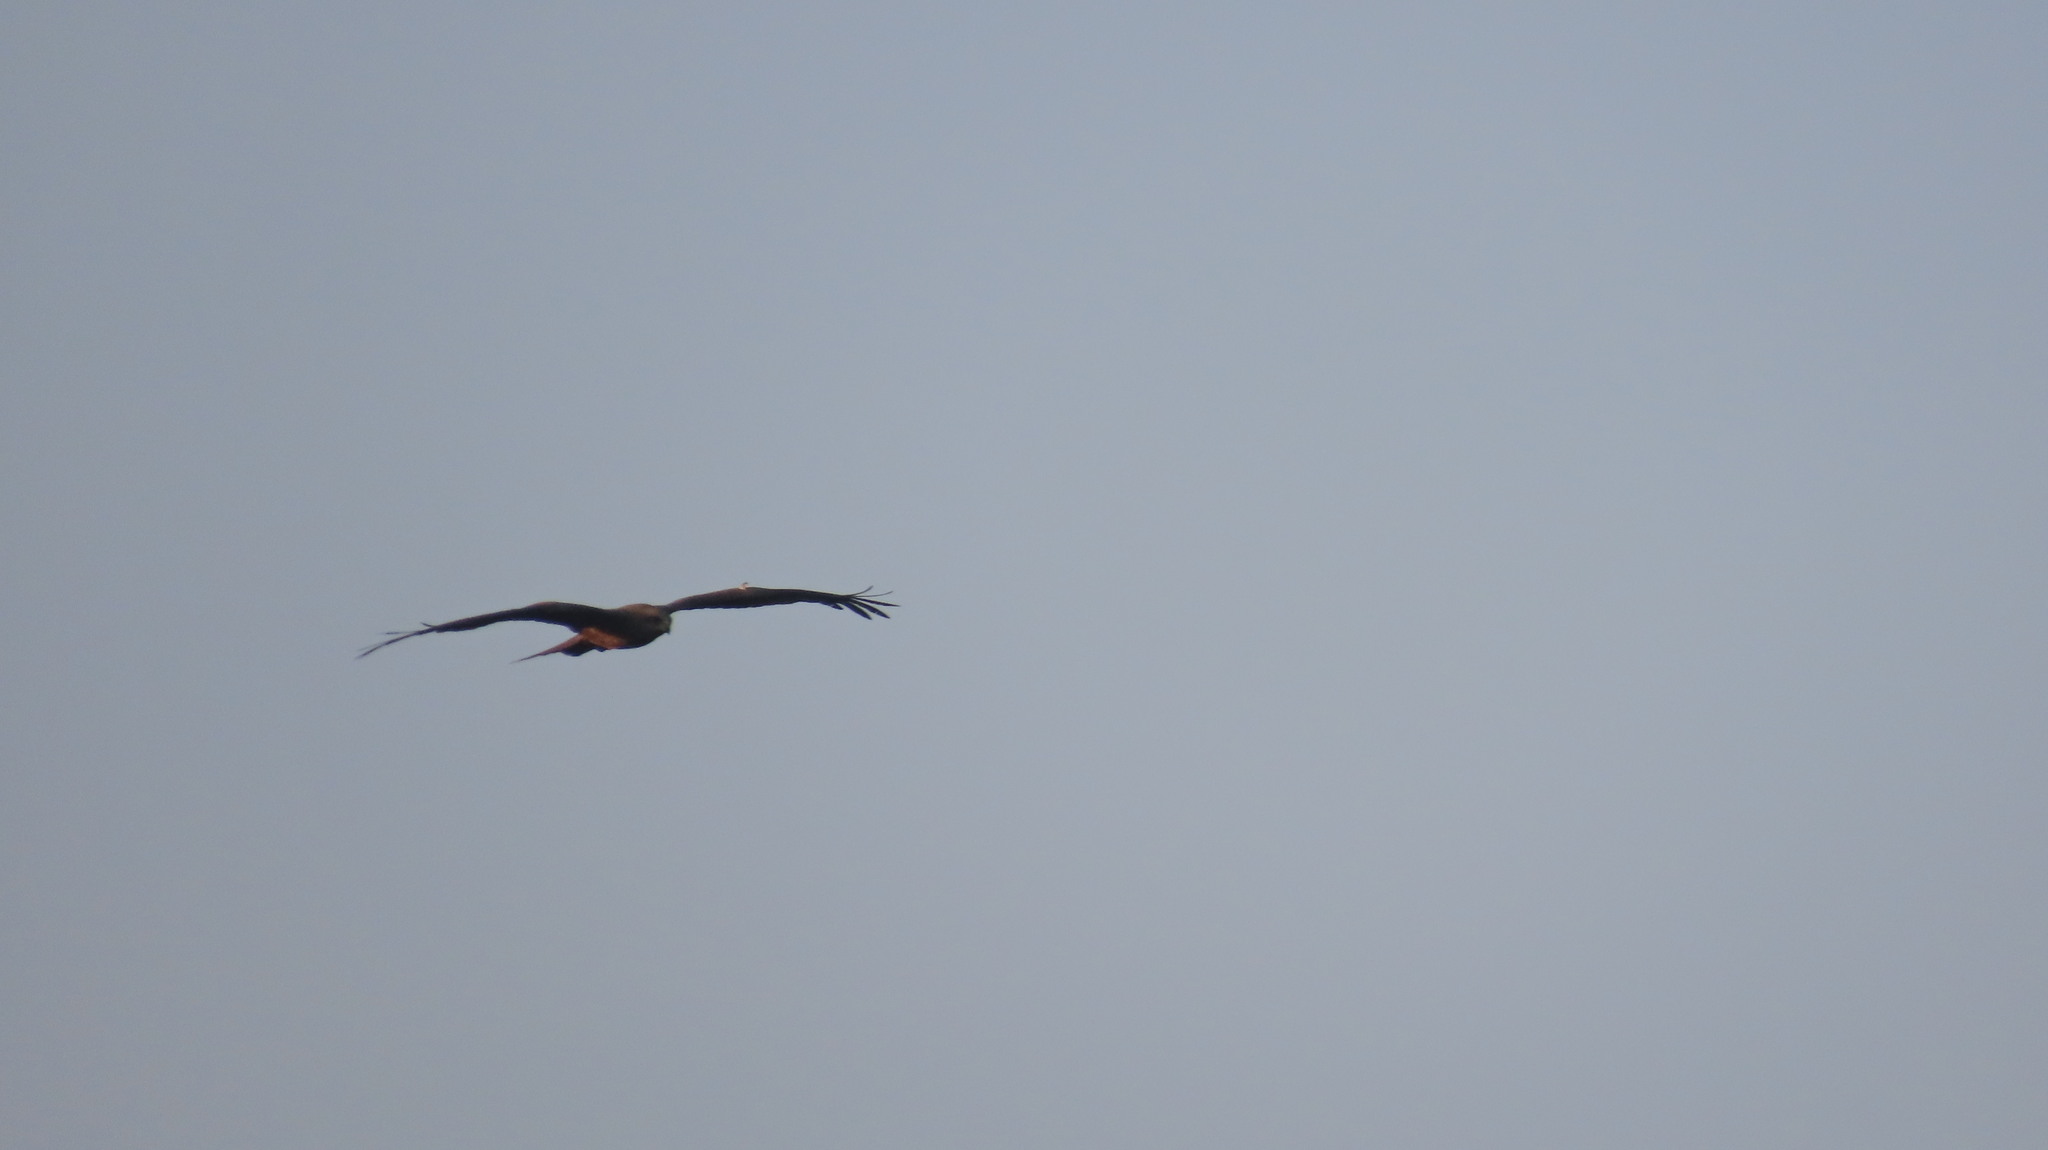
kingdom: Animalia
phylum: Chordata
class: Aves
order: Accipitriformes
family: Accipitridae
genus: Milvus
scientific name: Milvus migrans
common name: Black kite
